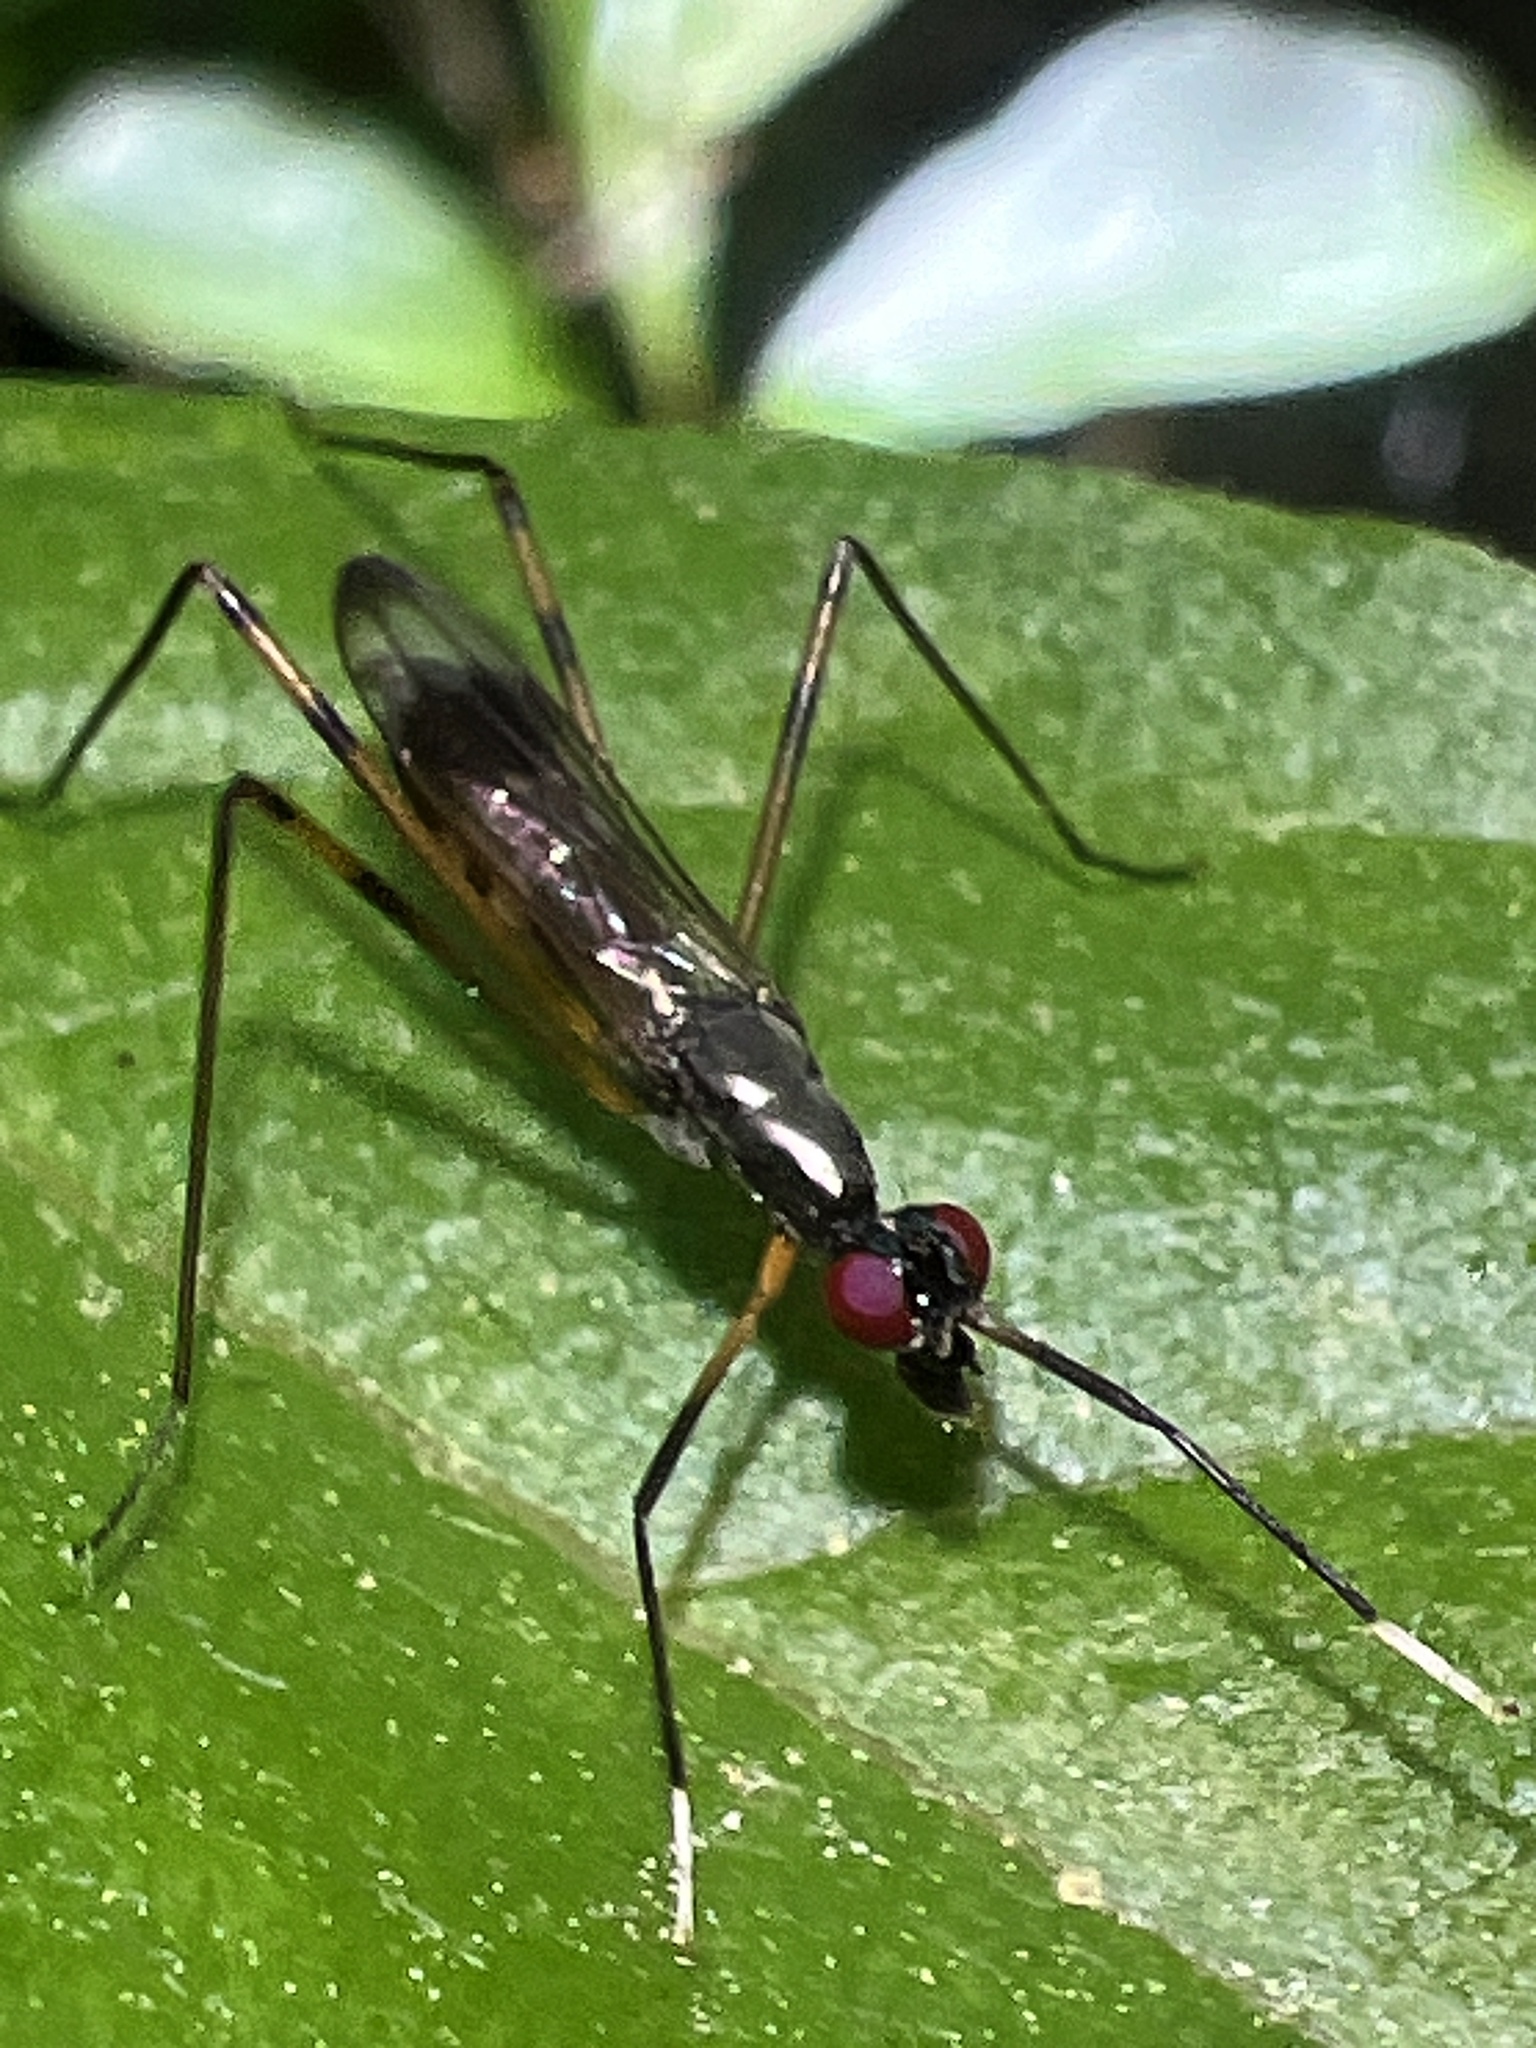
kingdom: Animalia
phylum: Arthropoda
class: Insecta
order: Diptera
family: Micropezidae
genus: Rainieria
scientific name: Rainieria antennaepes
